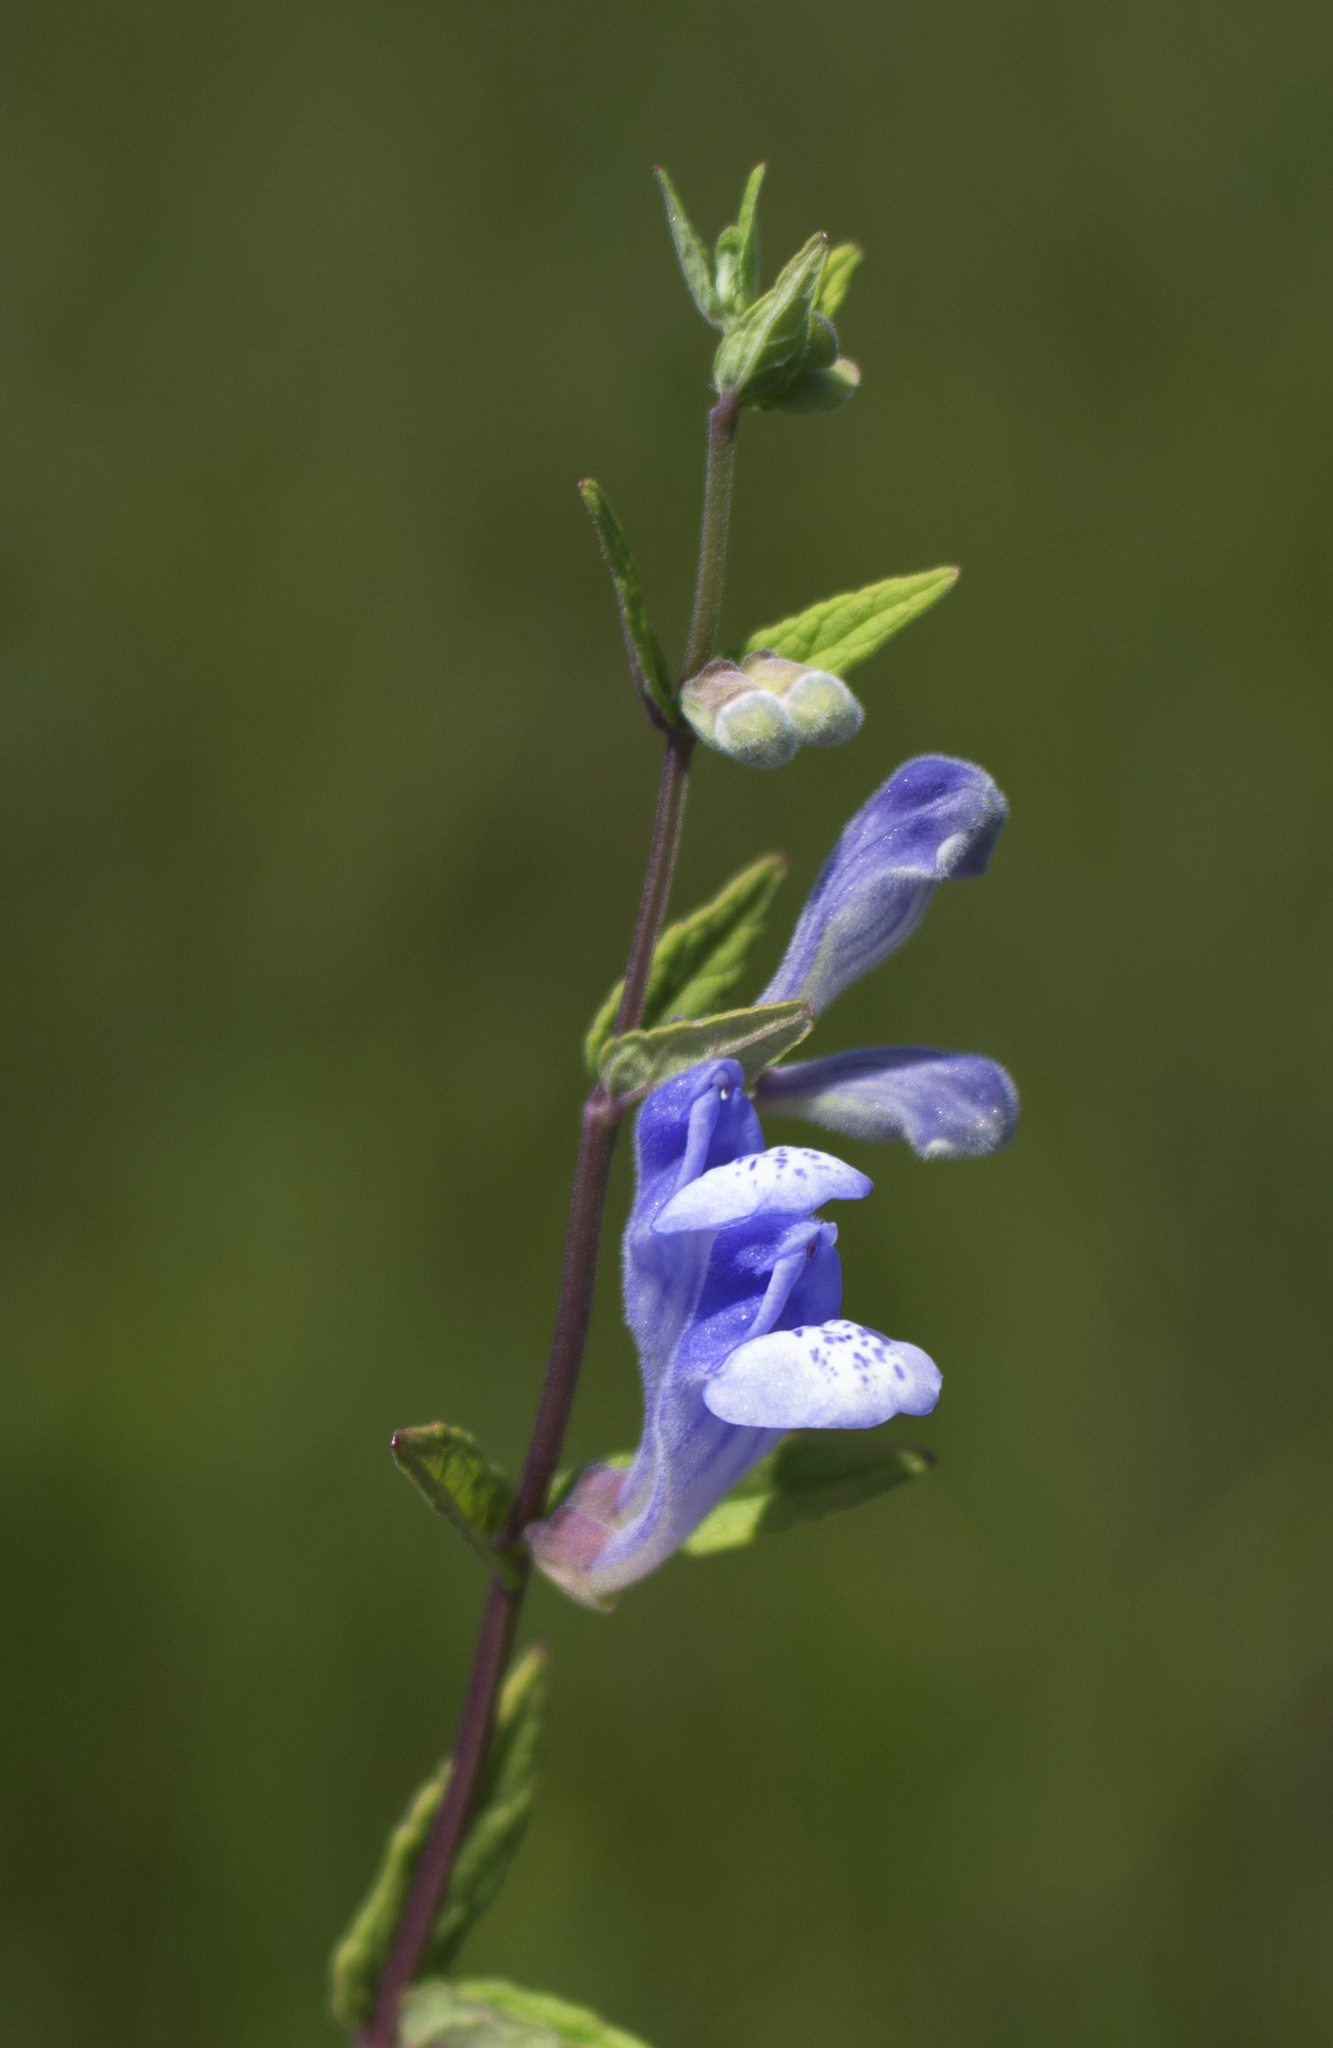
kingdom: Plantae
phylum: Tracheophyta
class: Magnoliopsida
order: Lamiales
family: Lamiaceae
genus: Scutellaria
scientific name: Scutellaria galericulata
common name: Skullcap
